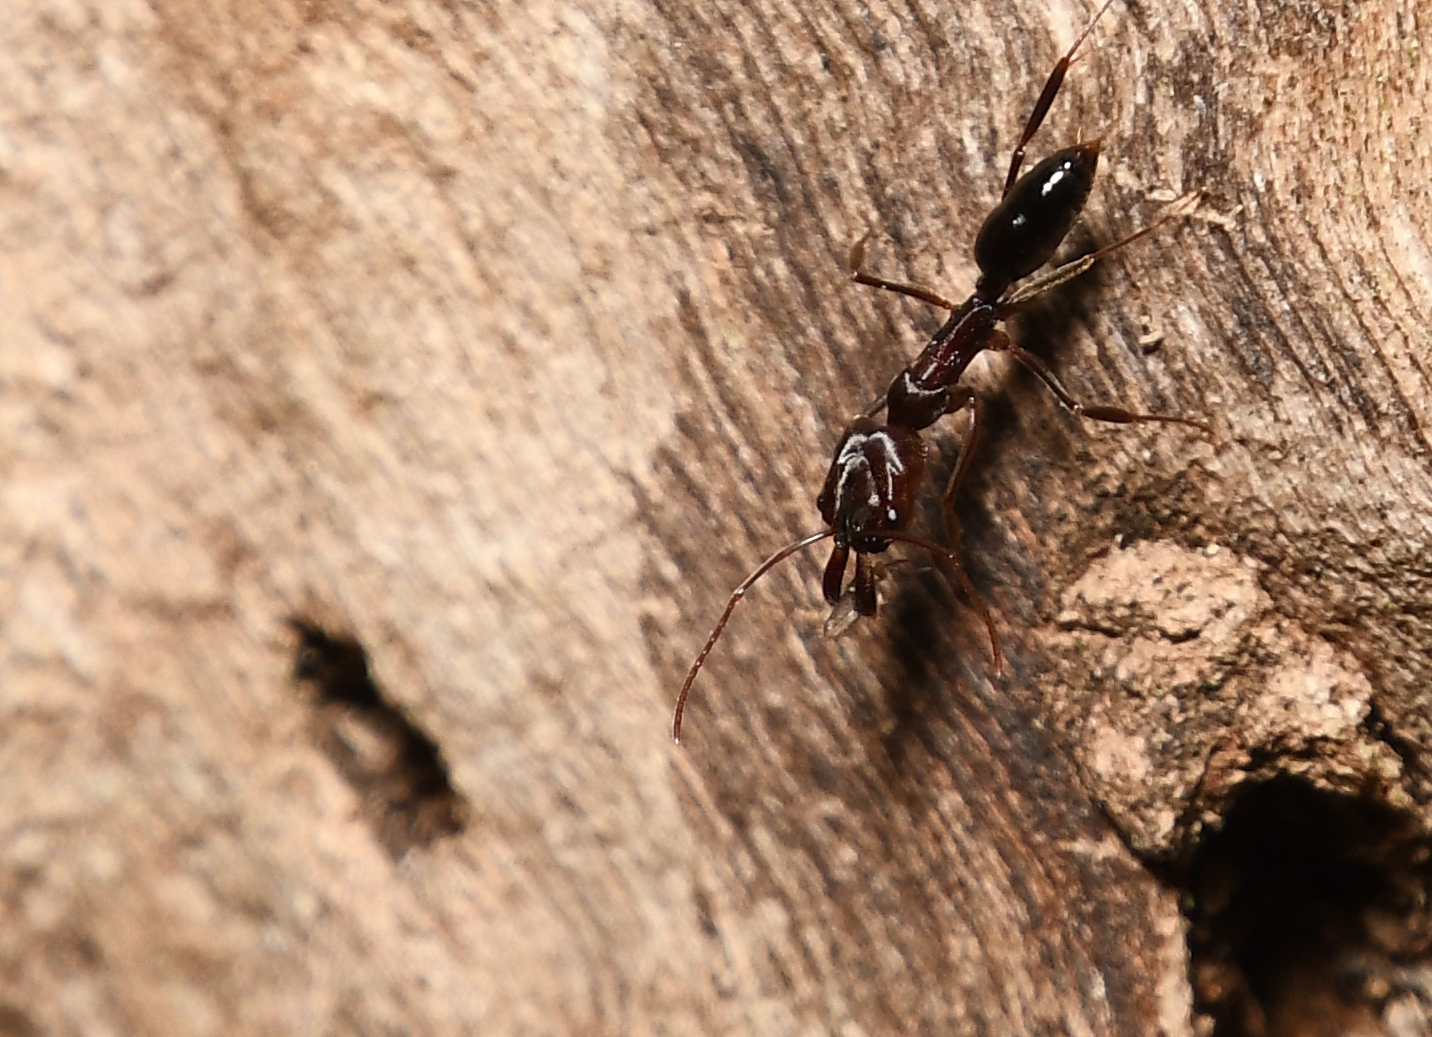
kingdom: Animalia
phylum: Arthropoda
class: Insecta
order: Hymenoptera
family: Formicidae
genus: Odontomachus
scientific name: Odontomachus brunneus
